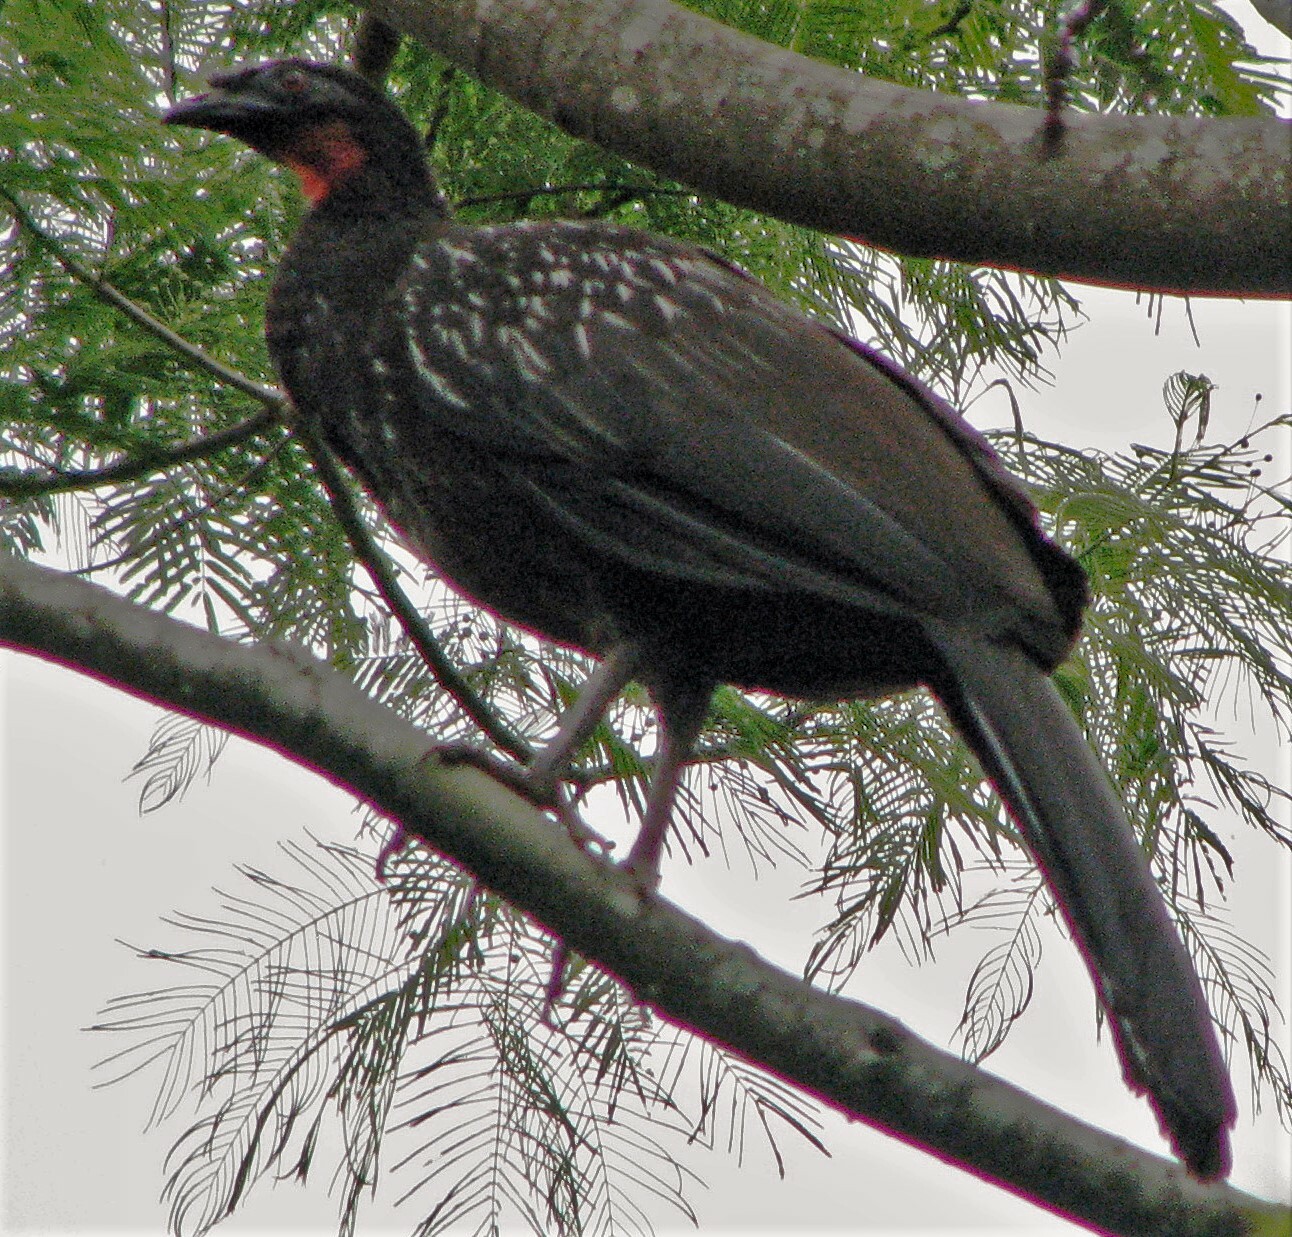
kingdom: Animalia
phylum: Chordata
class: Aves
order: Galliformes
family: Cracidae
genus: Penelope
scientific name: Penelope bridgesi
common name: Yungas guan
